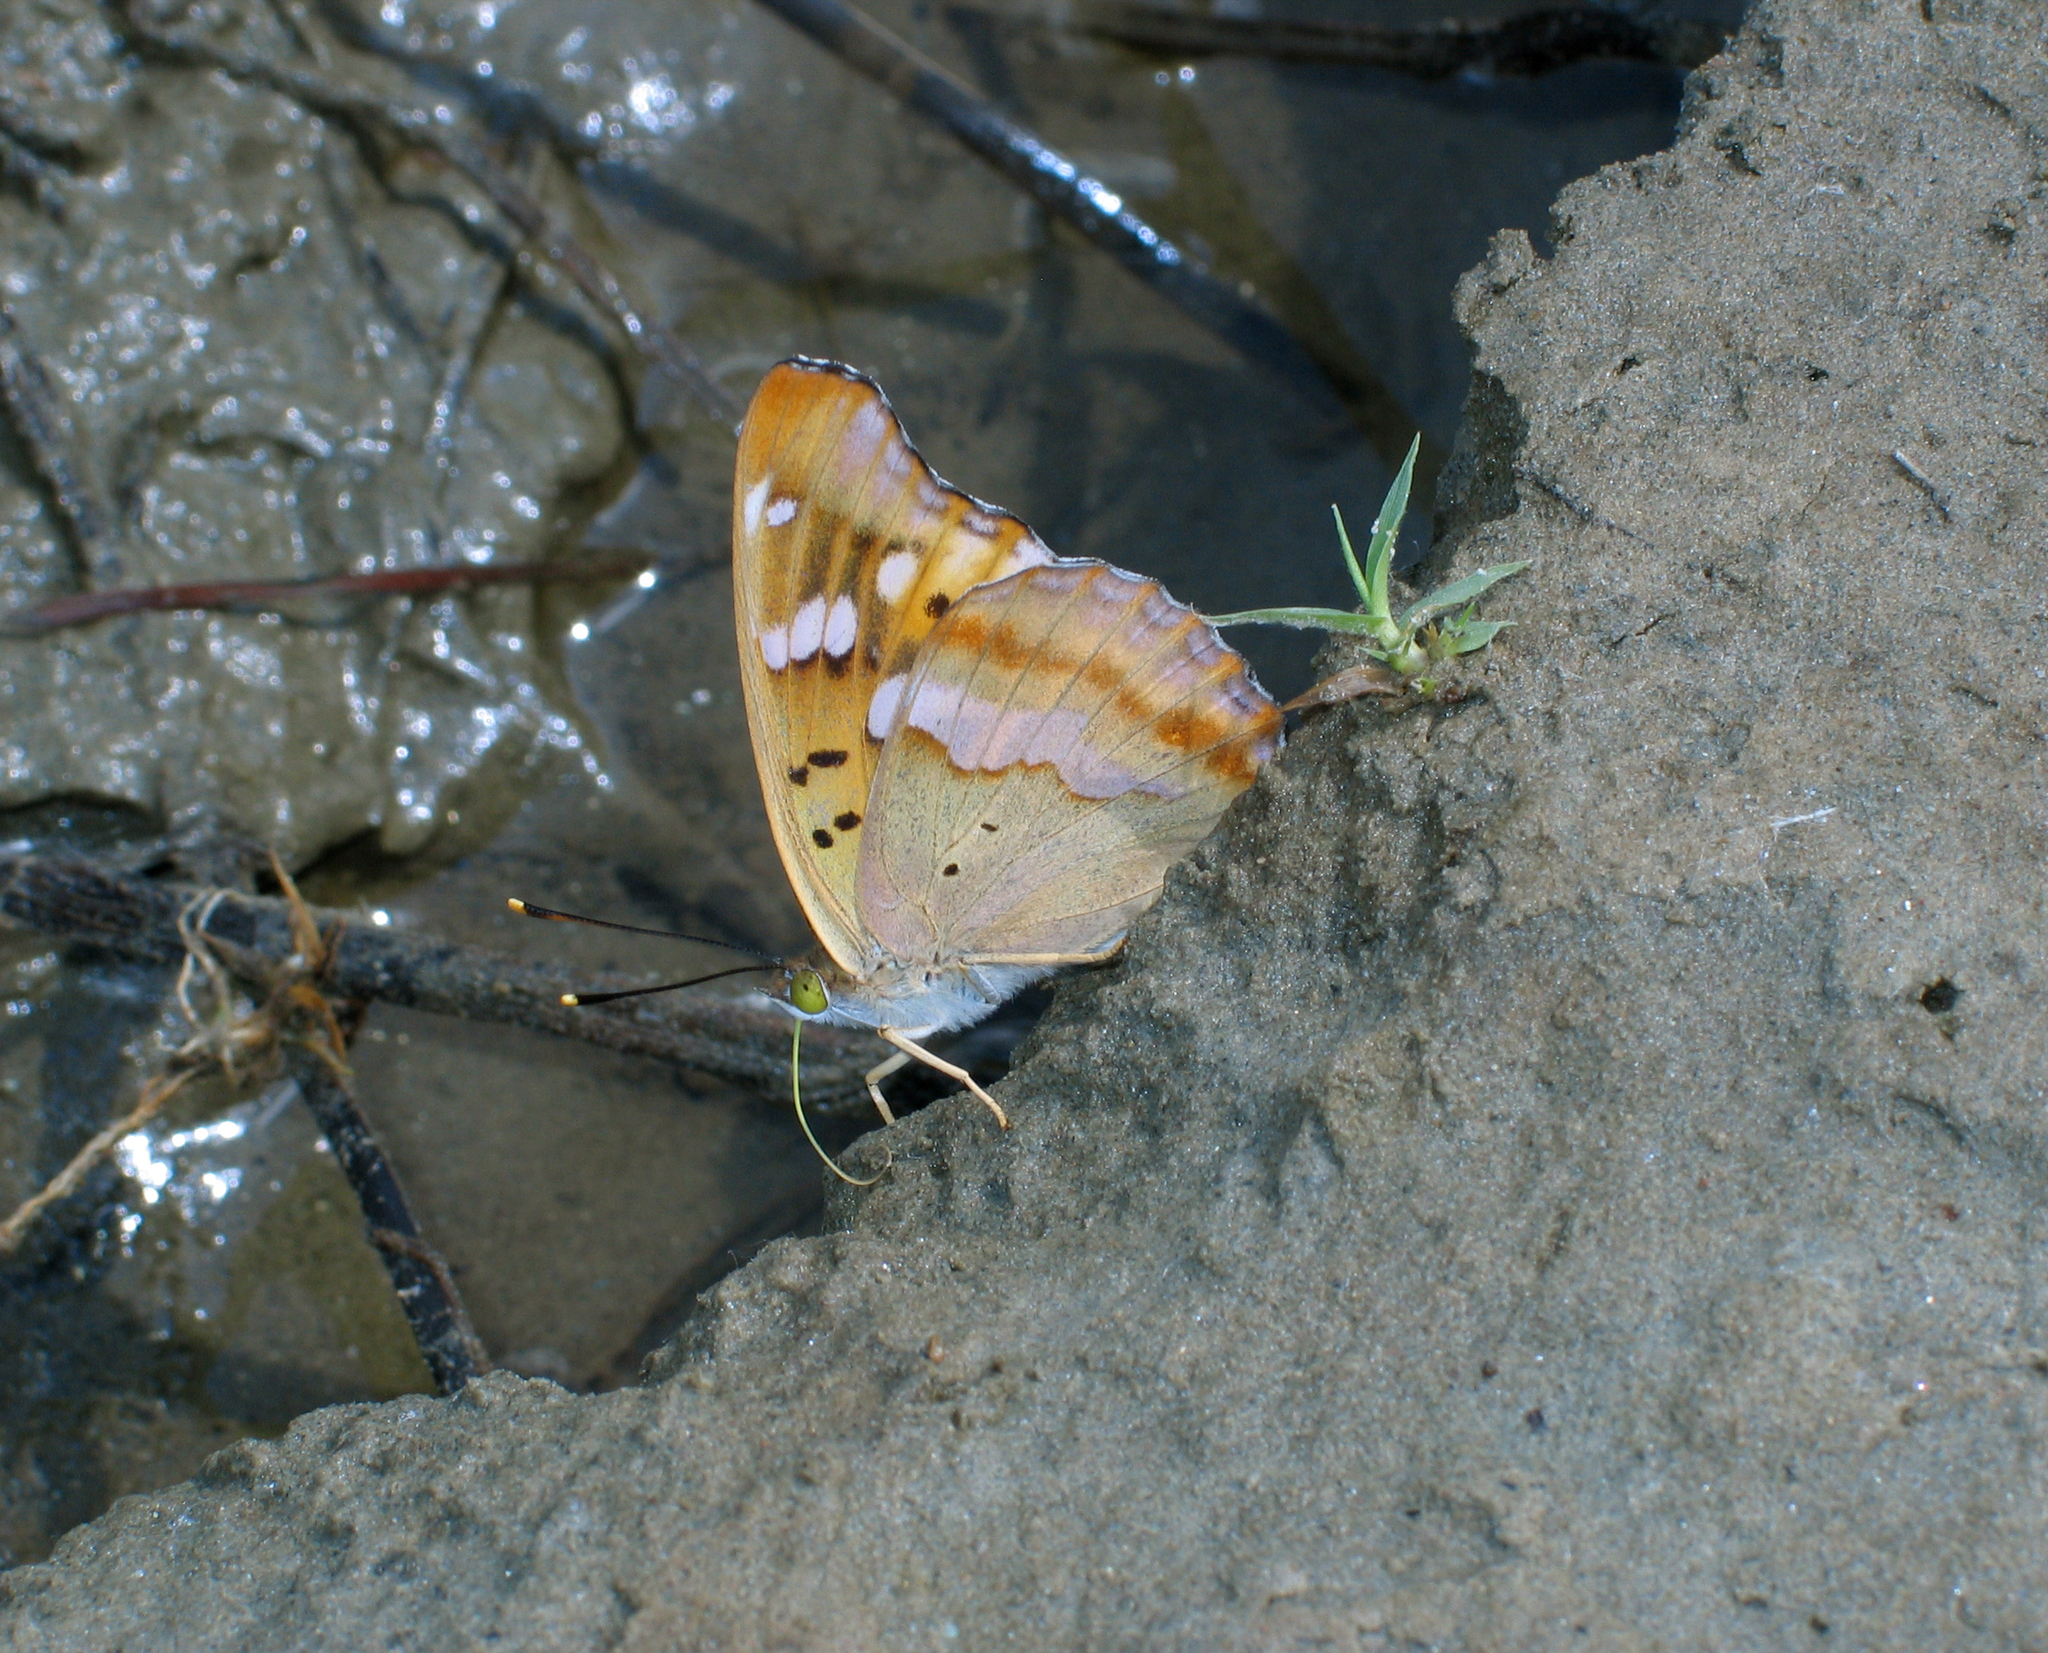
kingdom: Animalia
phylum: Arthropoda
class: Insecta
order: Lepidoptera
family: Nymphalidae
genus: Apatura
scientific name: Apatura ilia
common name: Lesser purple emperor
